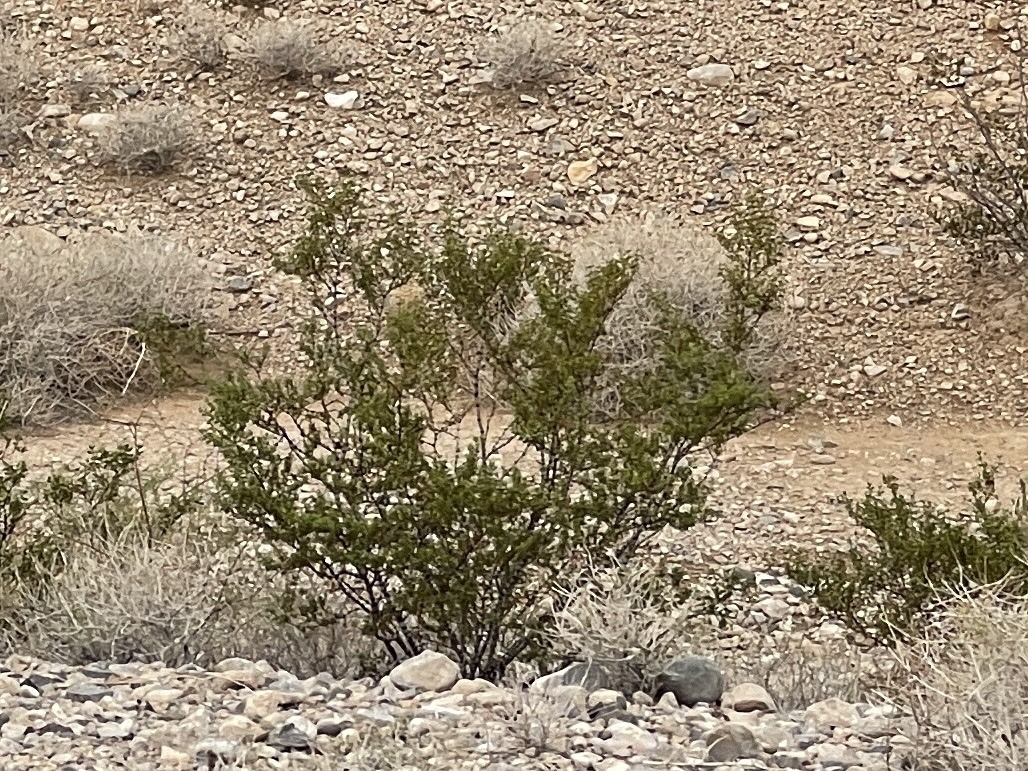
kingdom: Plantae
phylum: Tracheophyta
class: Magnoliopsida
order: Zygophyllales
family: Zygophyllaceae
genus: Larrea
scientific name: Larrea tridentata
